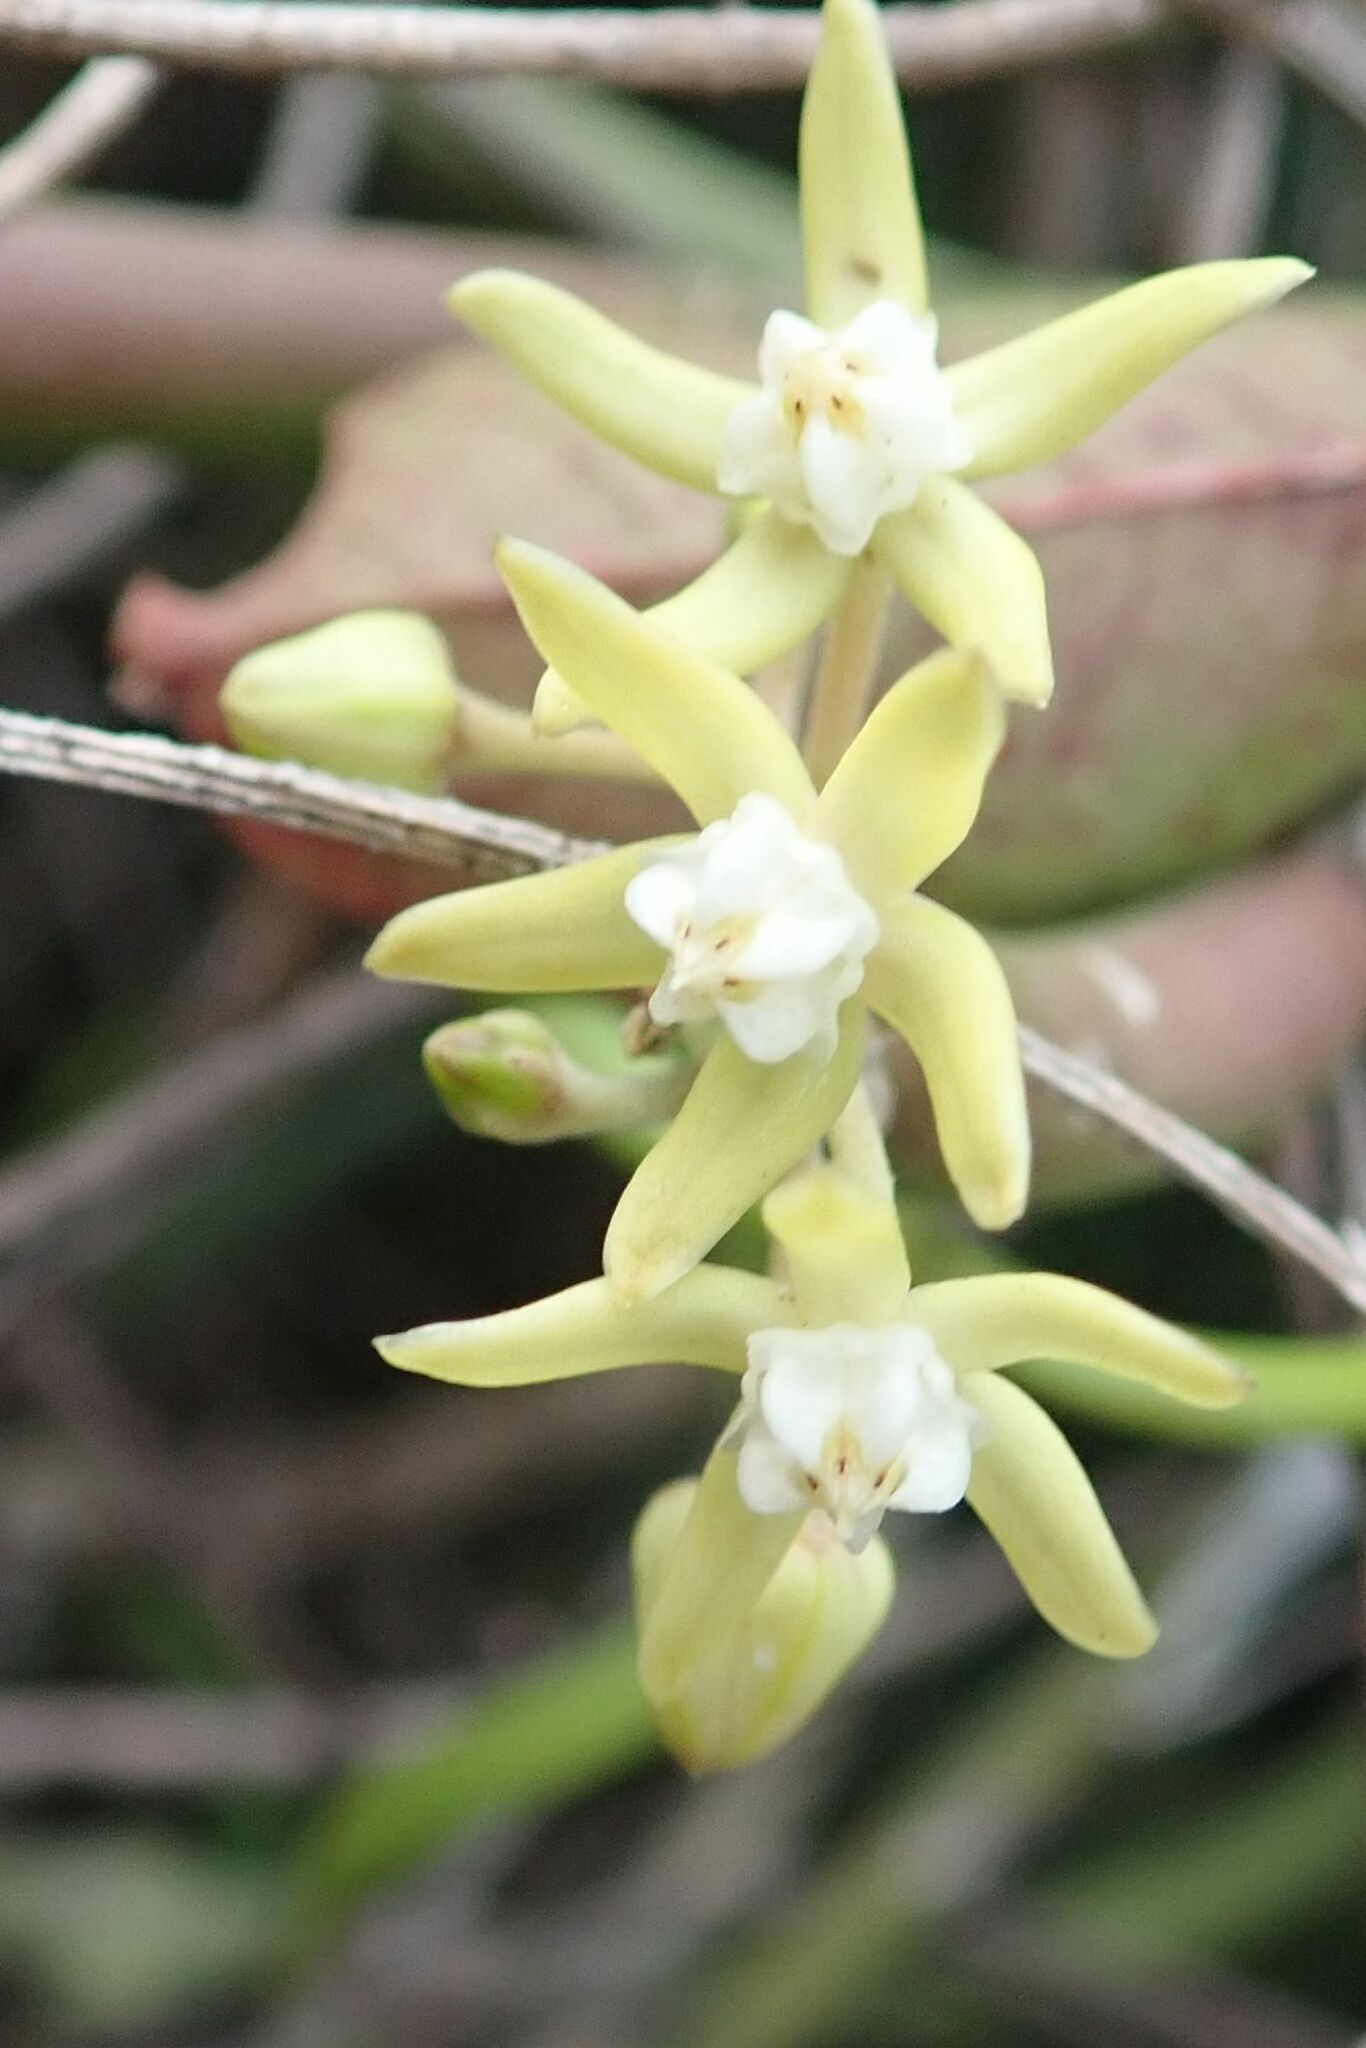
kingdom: Plantae
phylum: Tracheophyta
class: Magnoliopsida
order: Gentianales
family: Apocynaceae
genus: Cynanchum
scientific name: Cynanchum viminale
